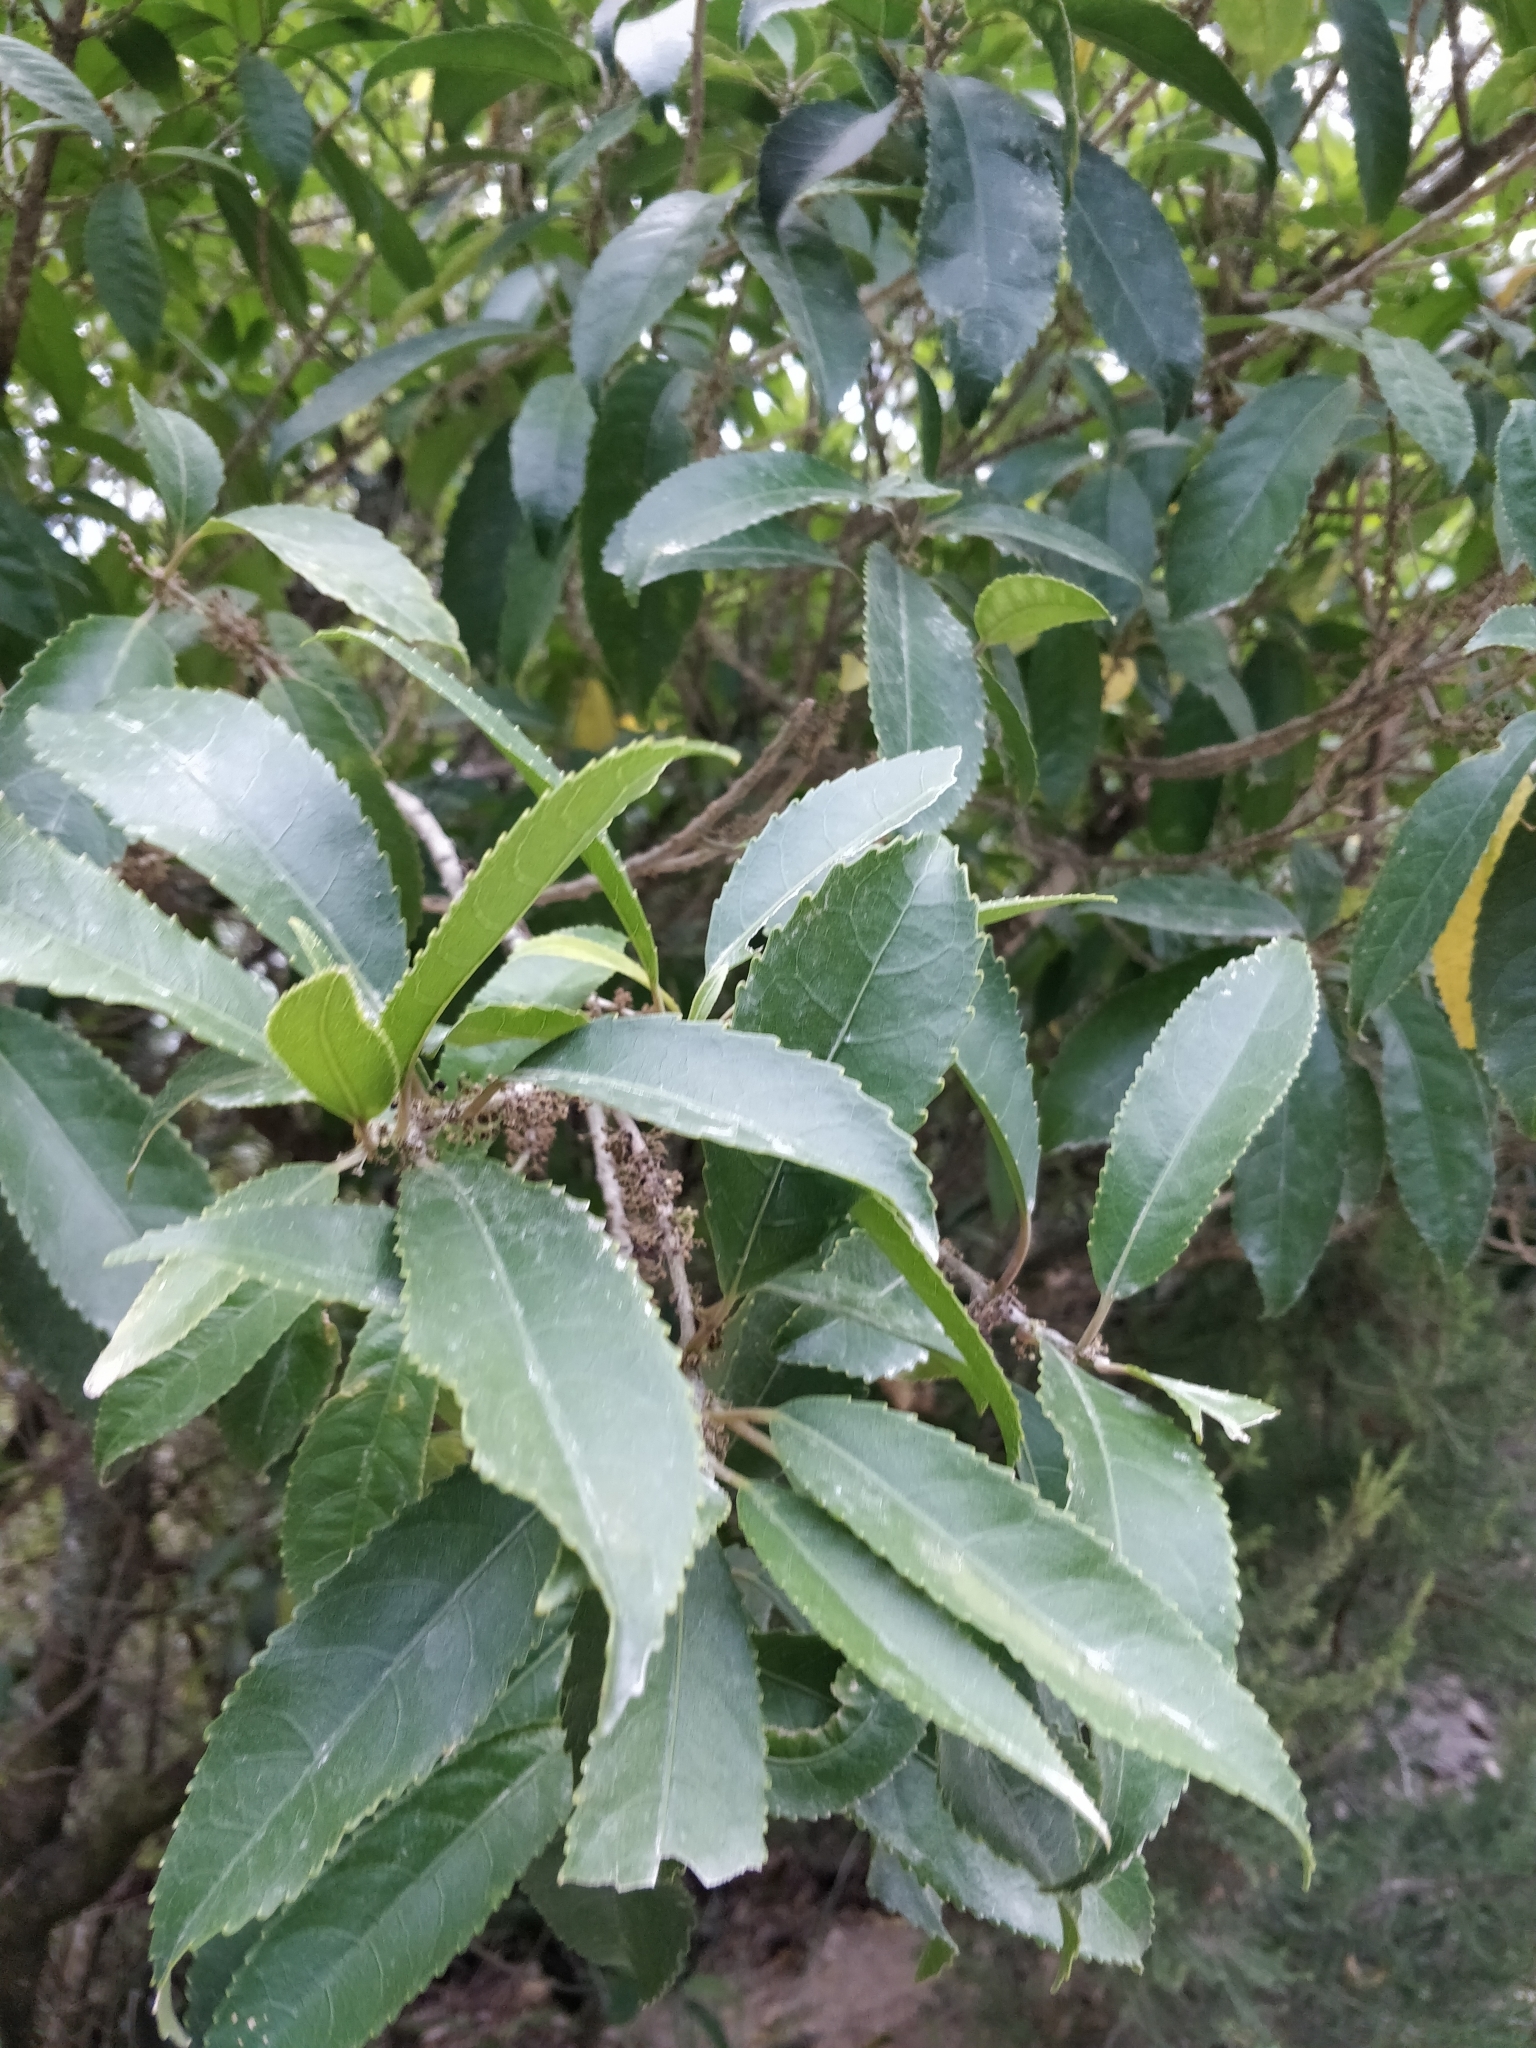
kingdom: Plantae
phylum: Tracheophyta
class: Magnoliopsida
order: Malpighiales
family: Violaceae
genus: Melicytus
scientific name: Melicytus ramiflorus
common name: Mahoe
